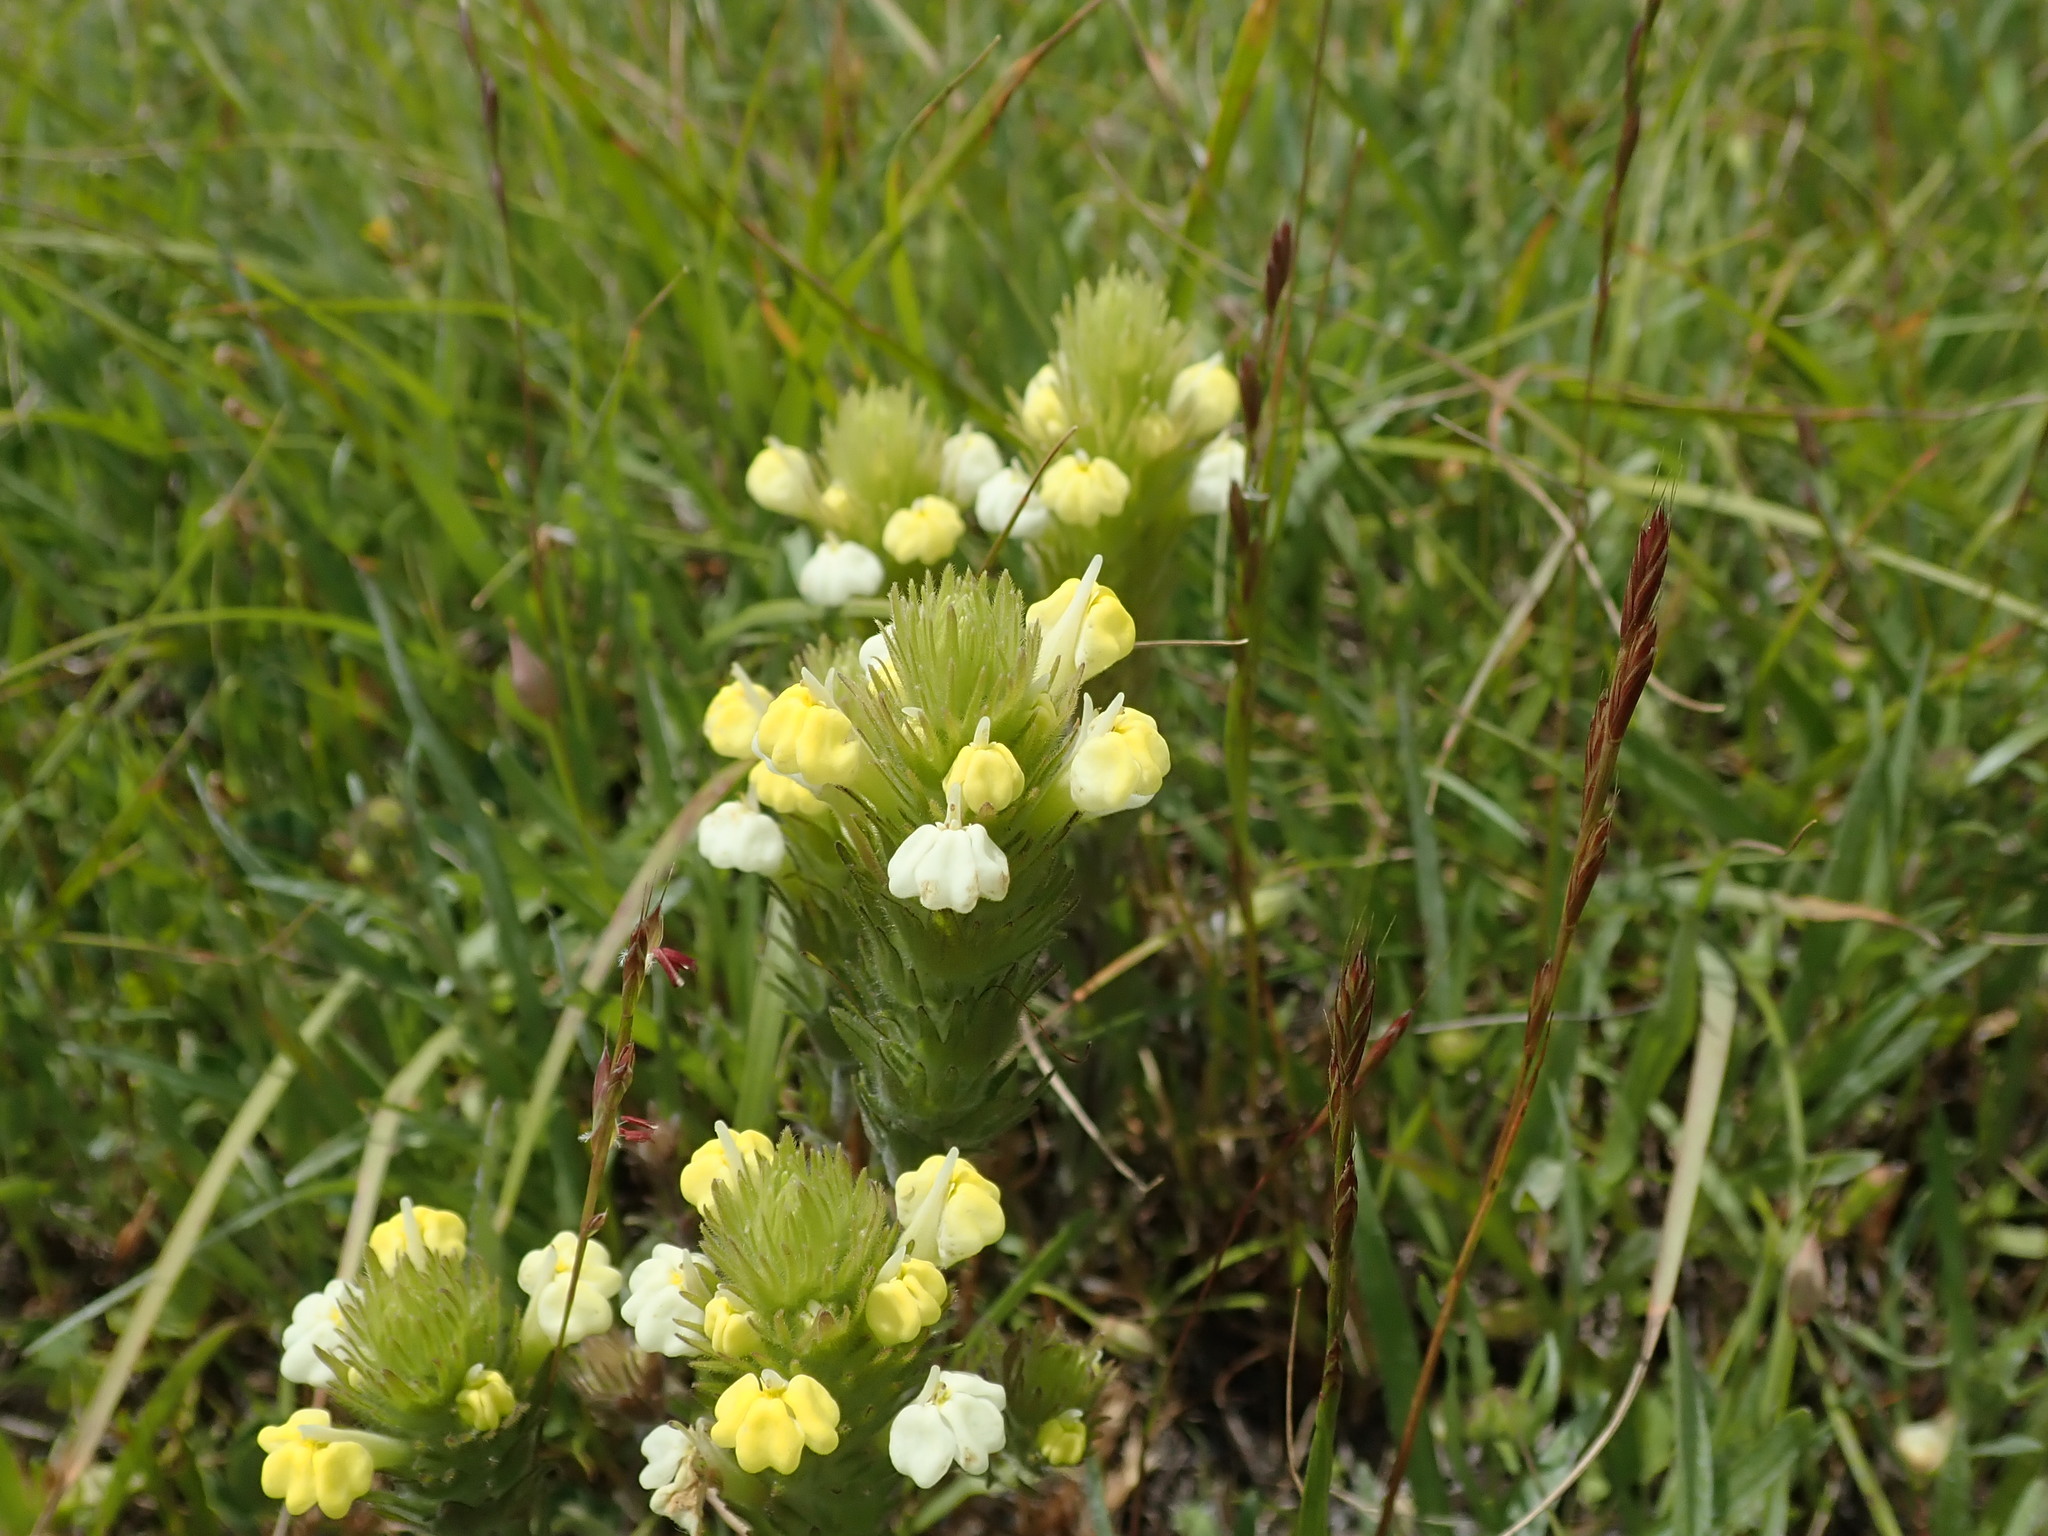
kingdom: Plantae
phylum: Tracheophyta
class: Magnoliopsida
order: Lamiales
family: Orobanchaceae
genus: Castilleja
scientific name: Castilleja rubicundula
